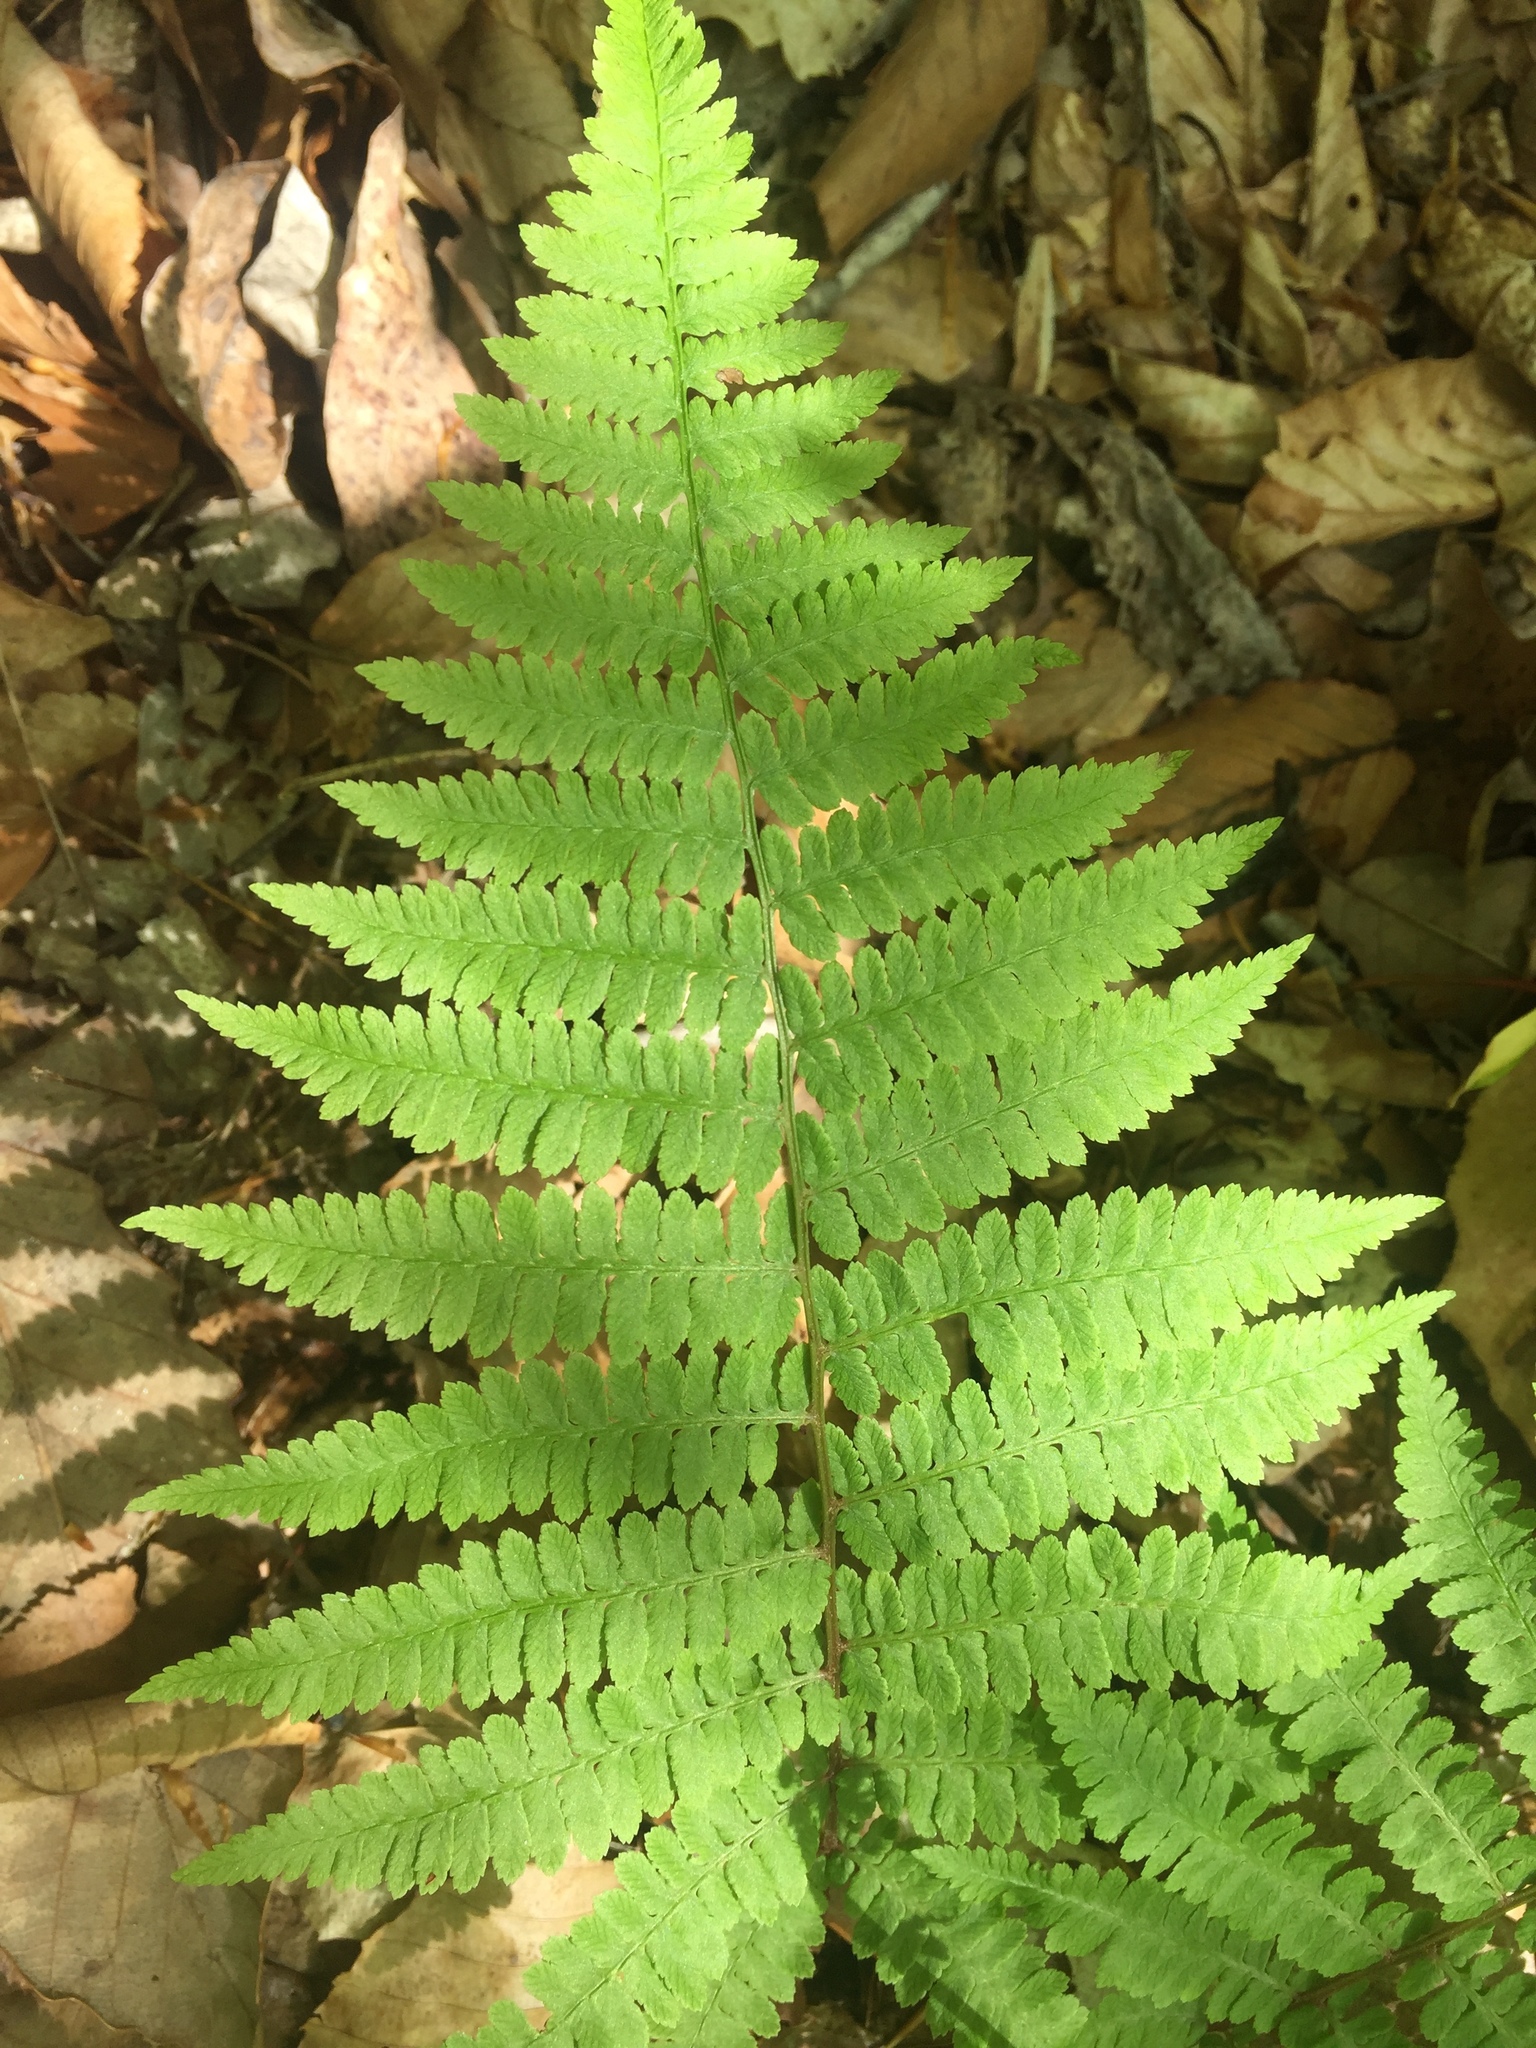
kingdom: Plantae
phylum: Tracheophyta
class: Polypodiopsida
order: Polypodiales
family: Athyriaceae
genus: Athyrium
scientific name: Athyrium angustum
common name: Northern lady fern
